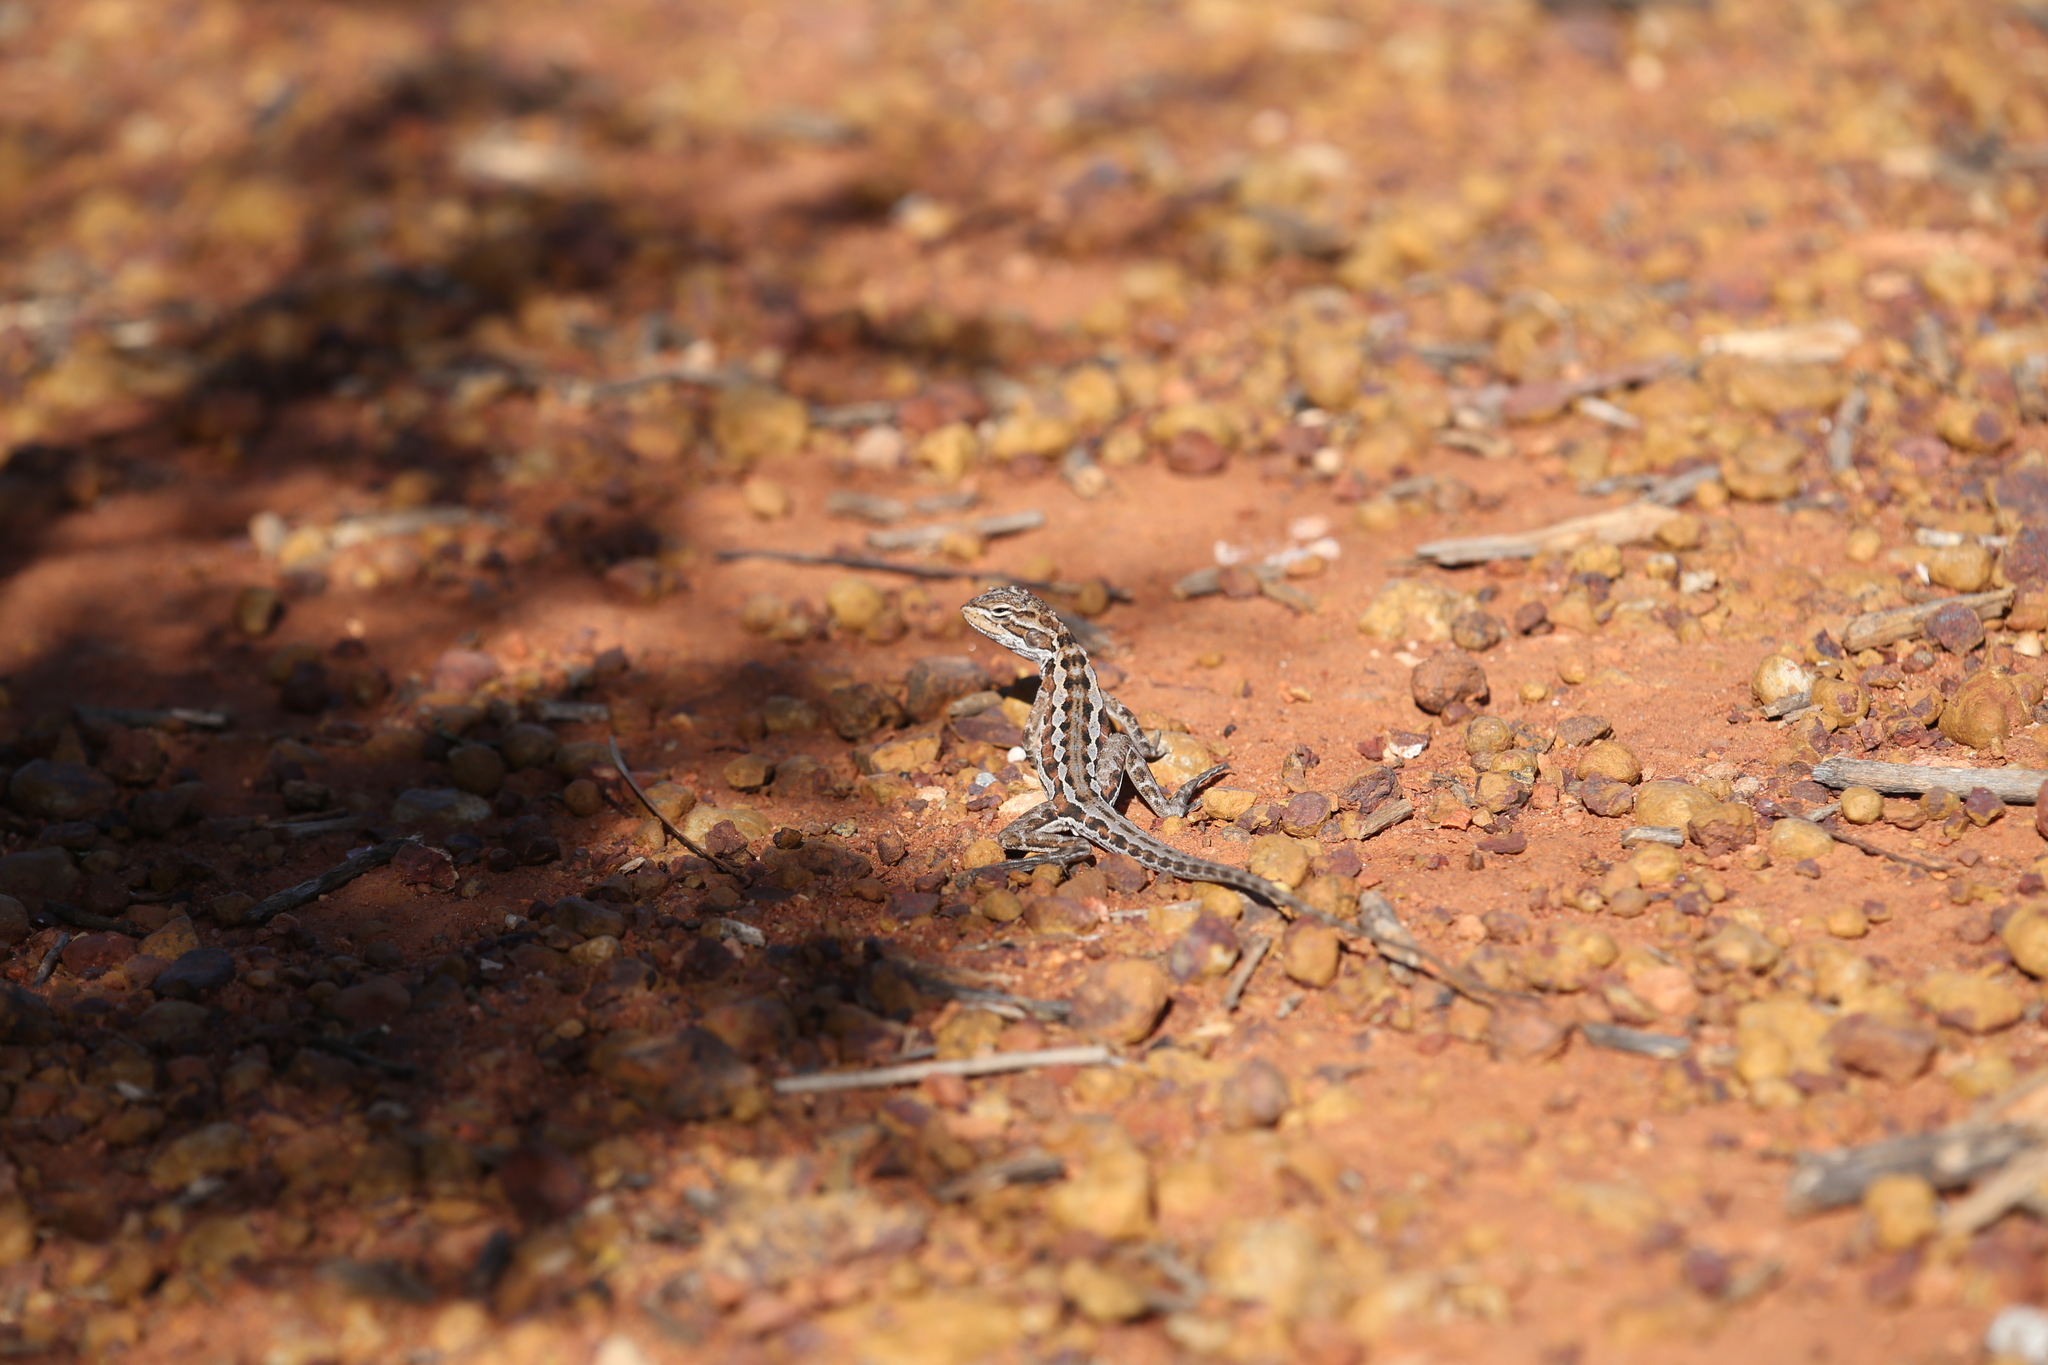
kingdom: Animalia
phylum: Chordata
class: Squamata
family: Agamidae
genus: Ctenophorus
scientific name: Ctenophorus scutulatus
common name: Lozenge-marked dragon
